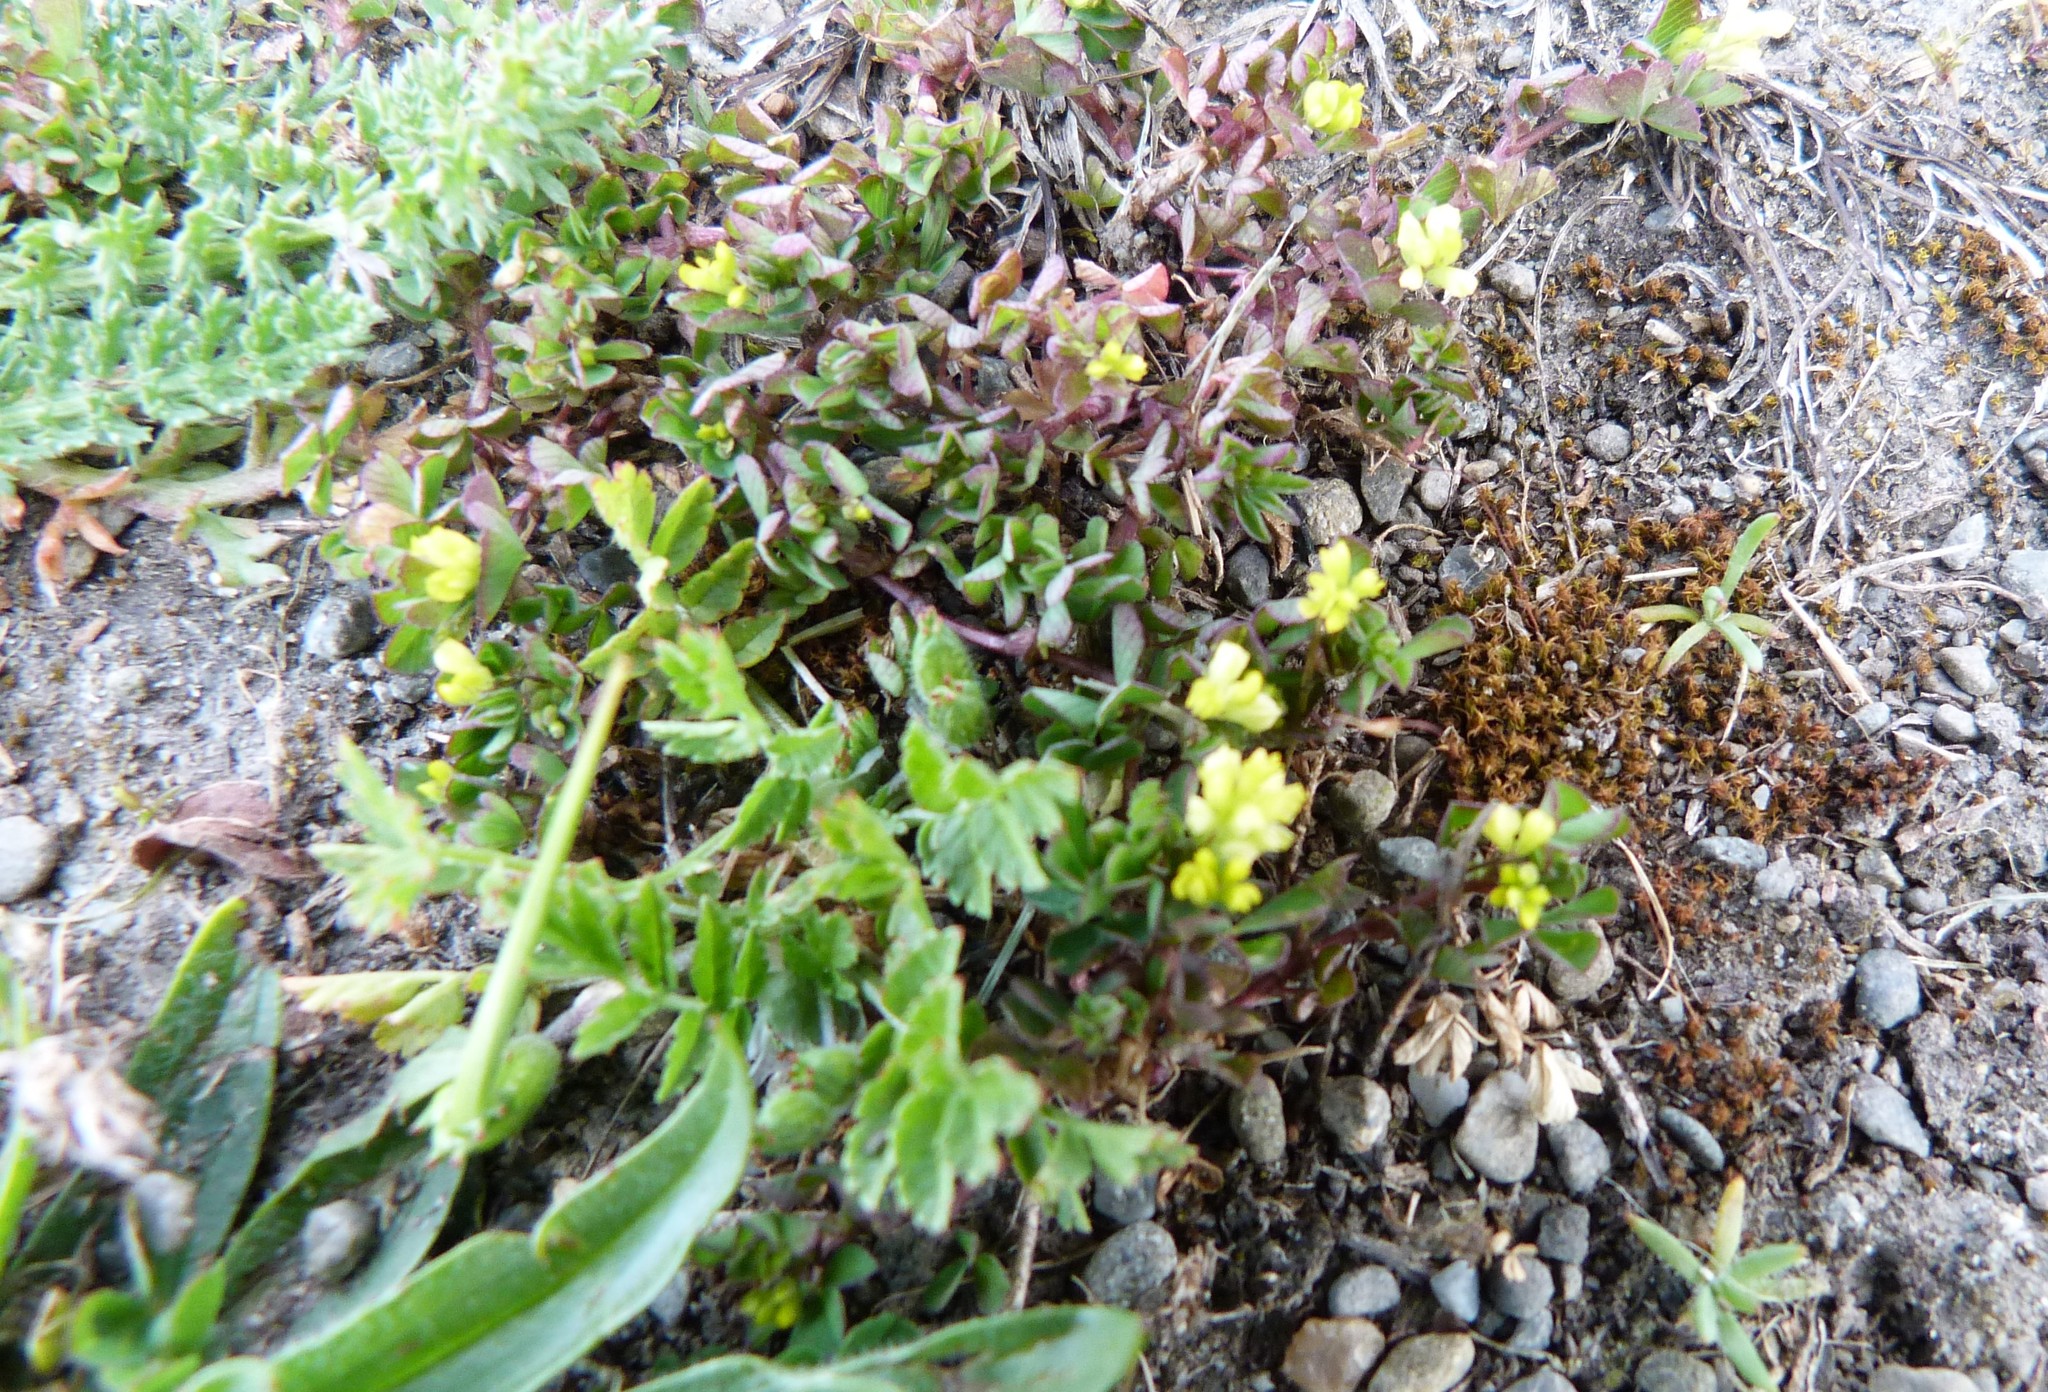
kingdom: Plantae
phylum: Tracheophyta
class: Magnoliopsida
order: Fabales
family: Fabaceae
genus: Trifolium
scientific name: Trifolium dubium
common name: Suckling clover
